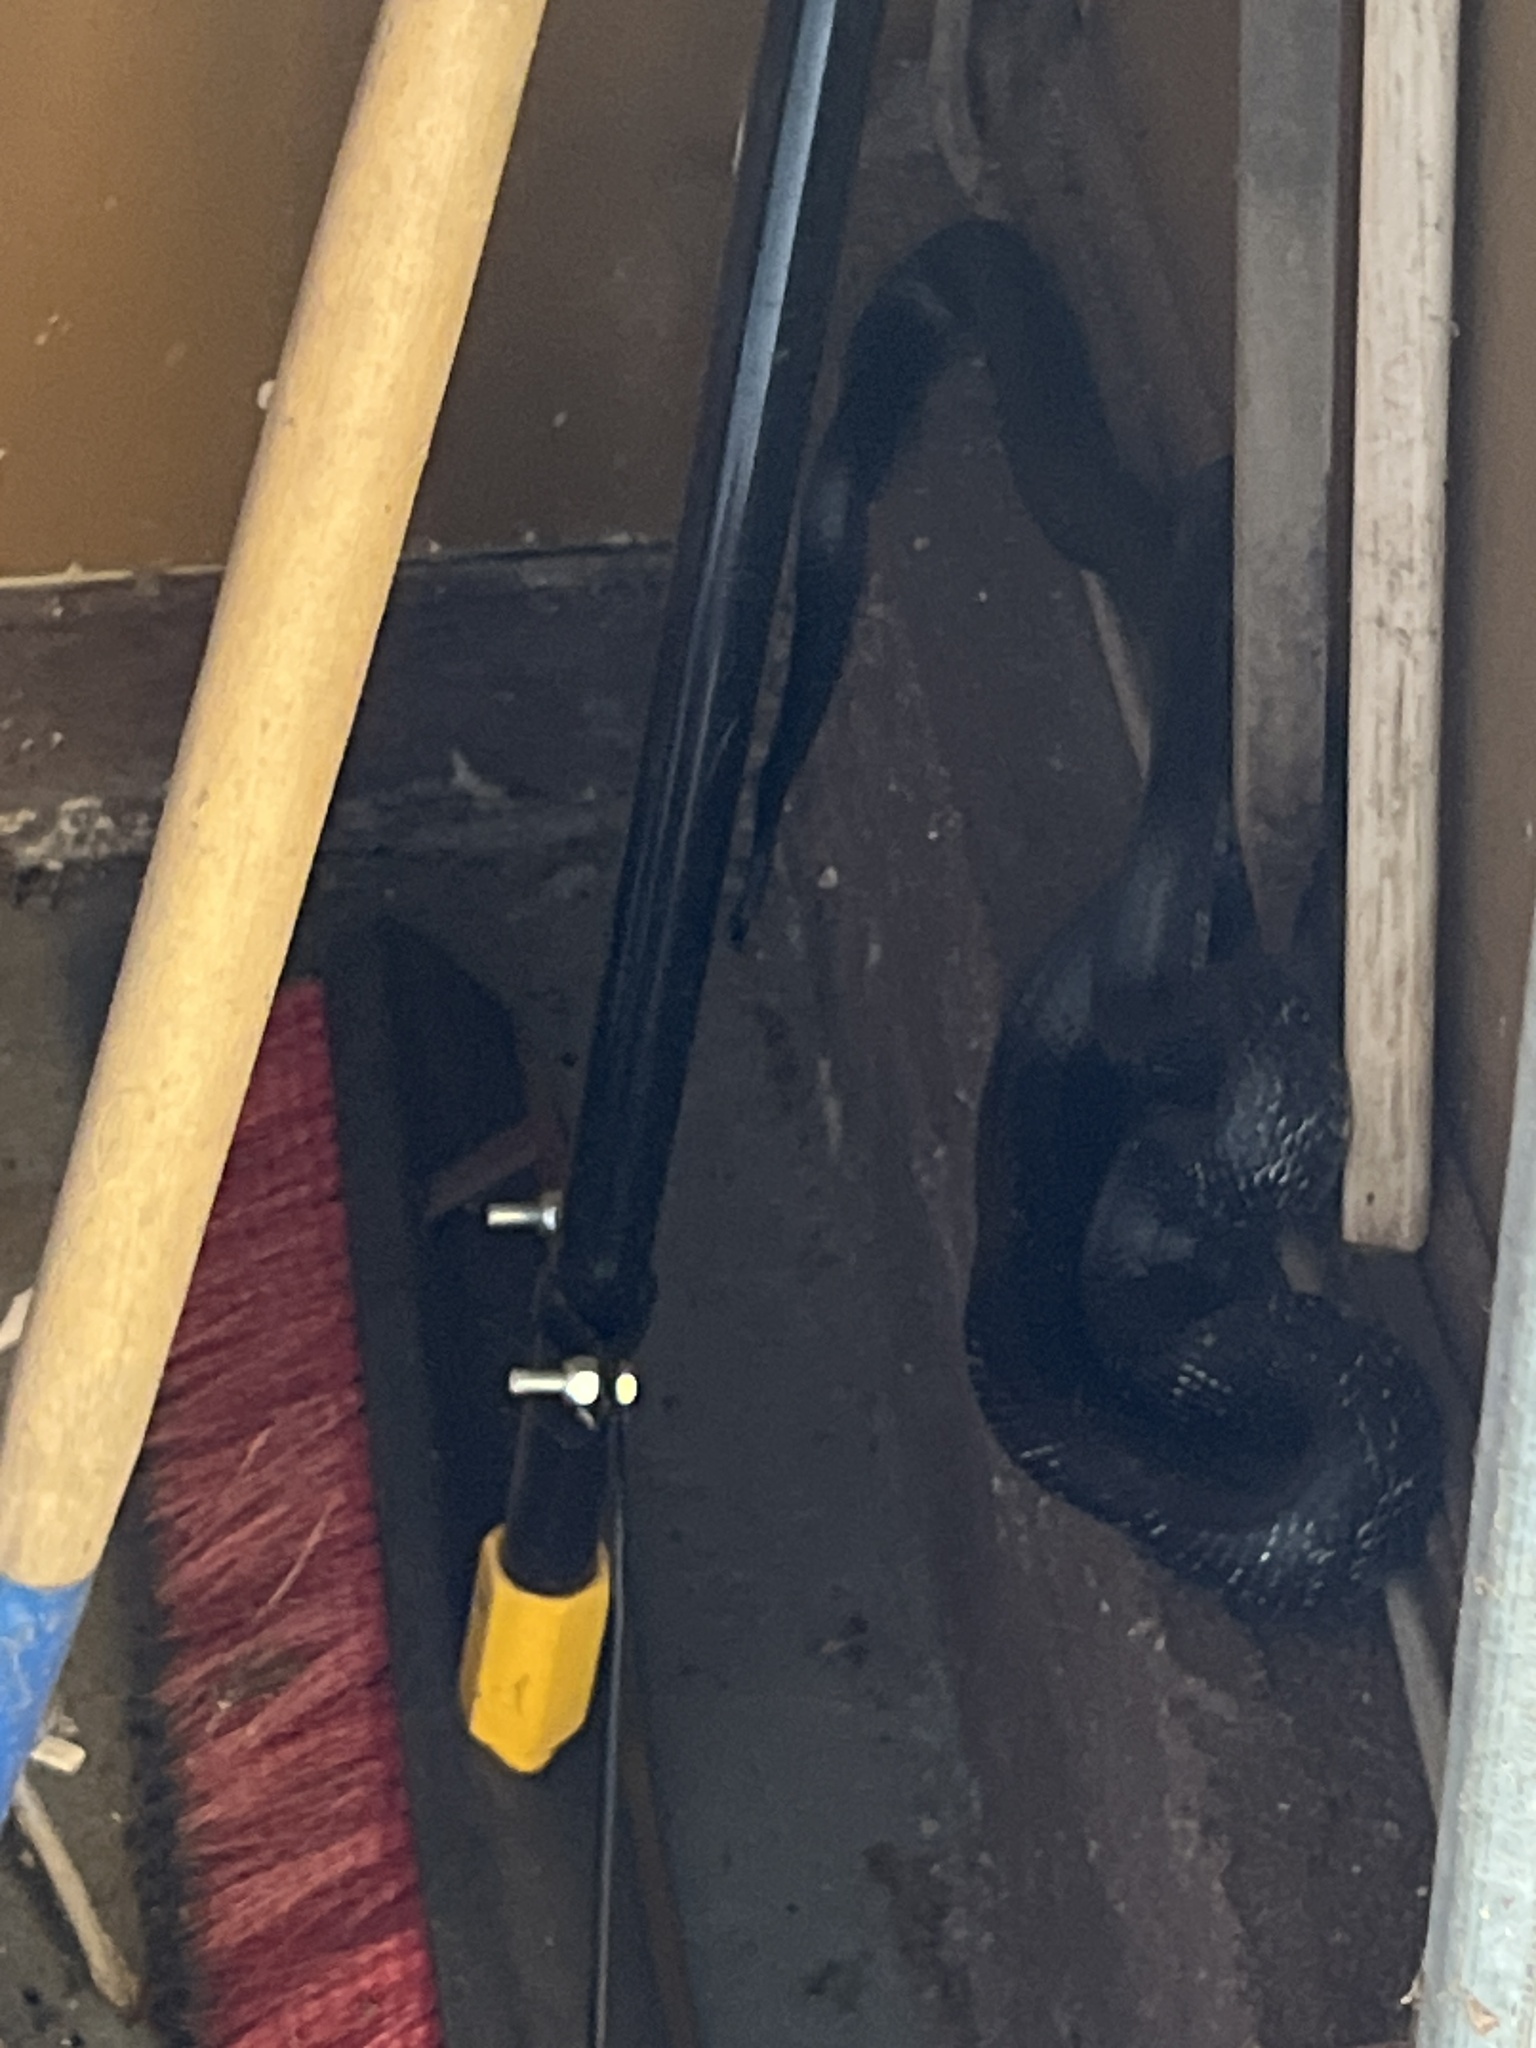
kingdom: Animalia
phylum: Chordata
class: Squamata
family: Colubridae
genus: Pantherophis
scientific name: Pantherophis
